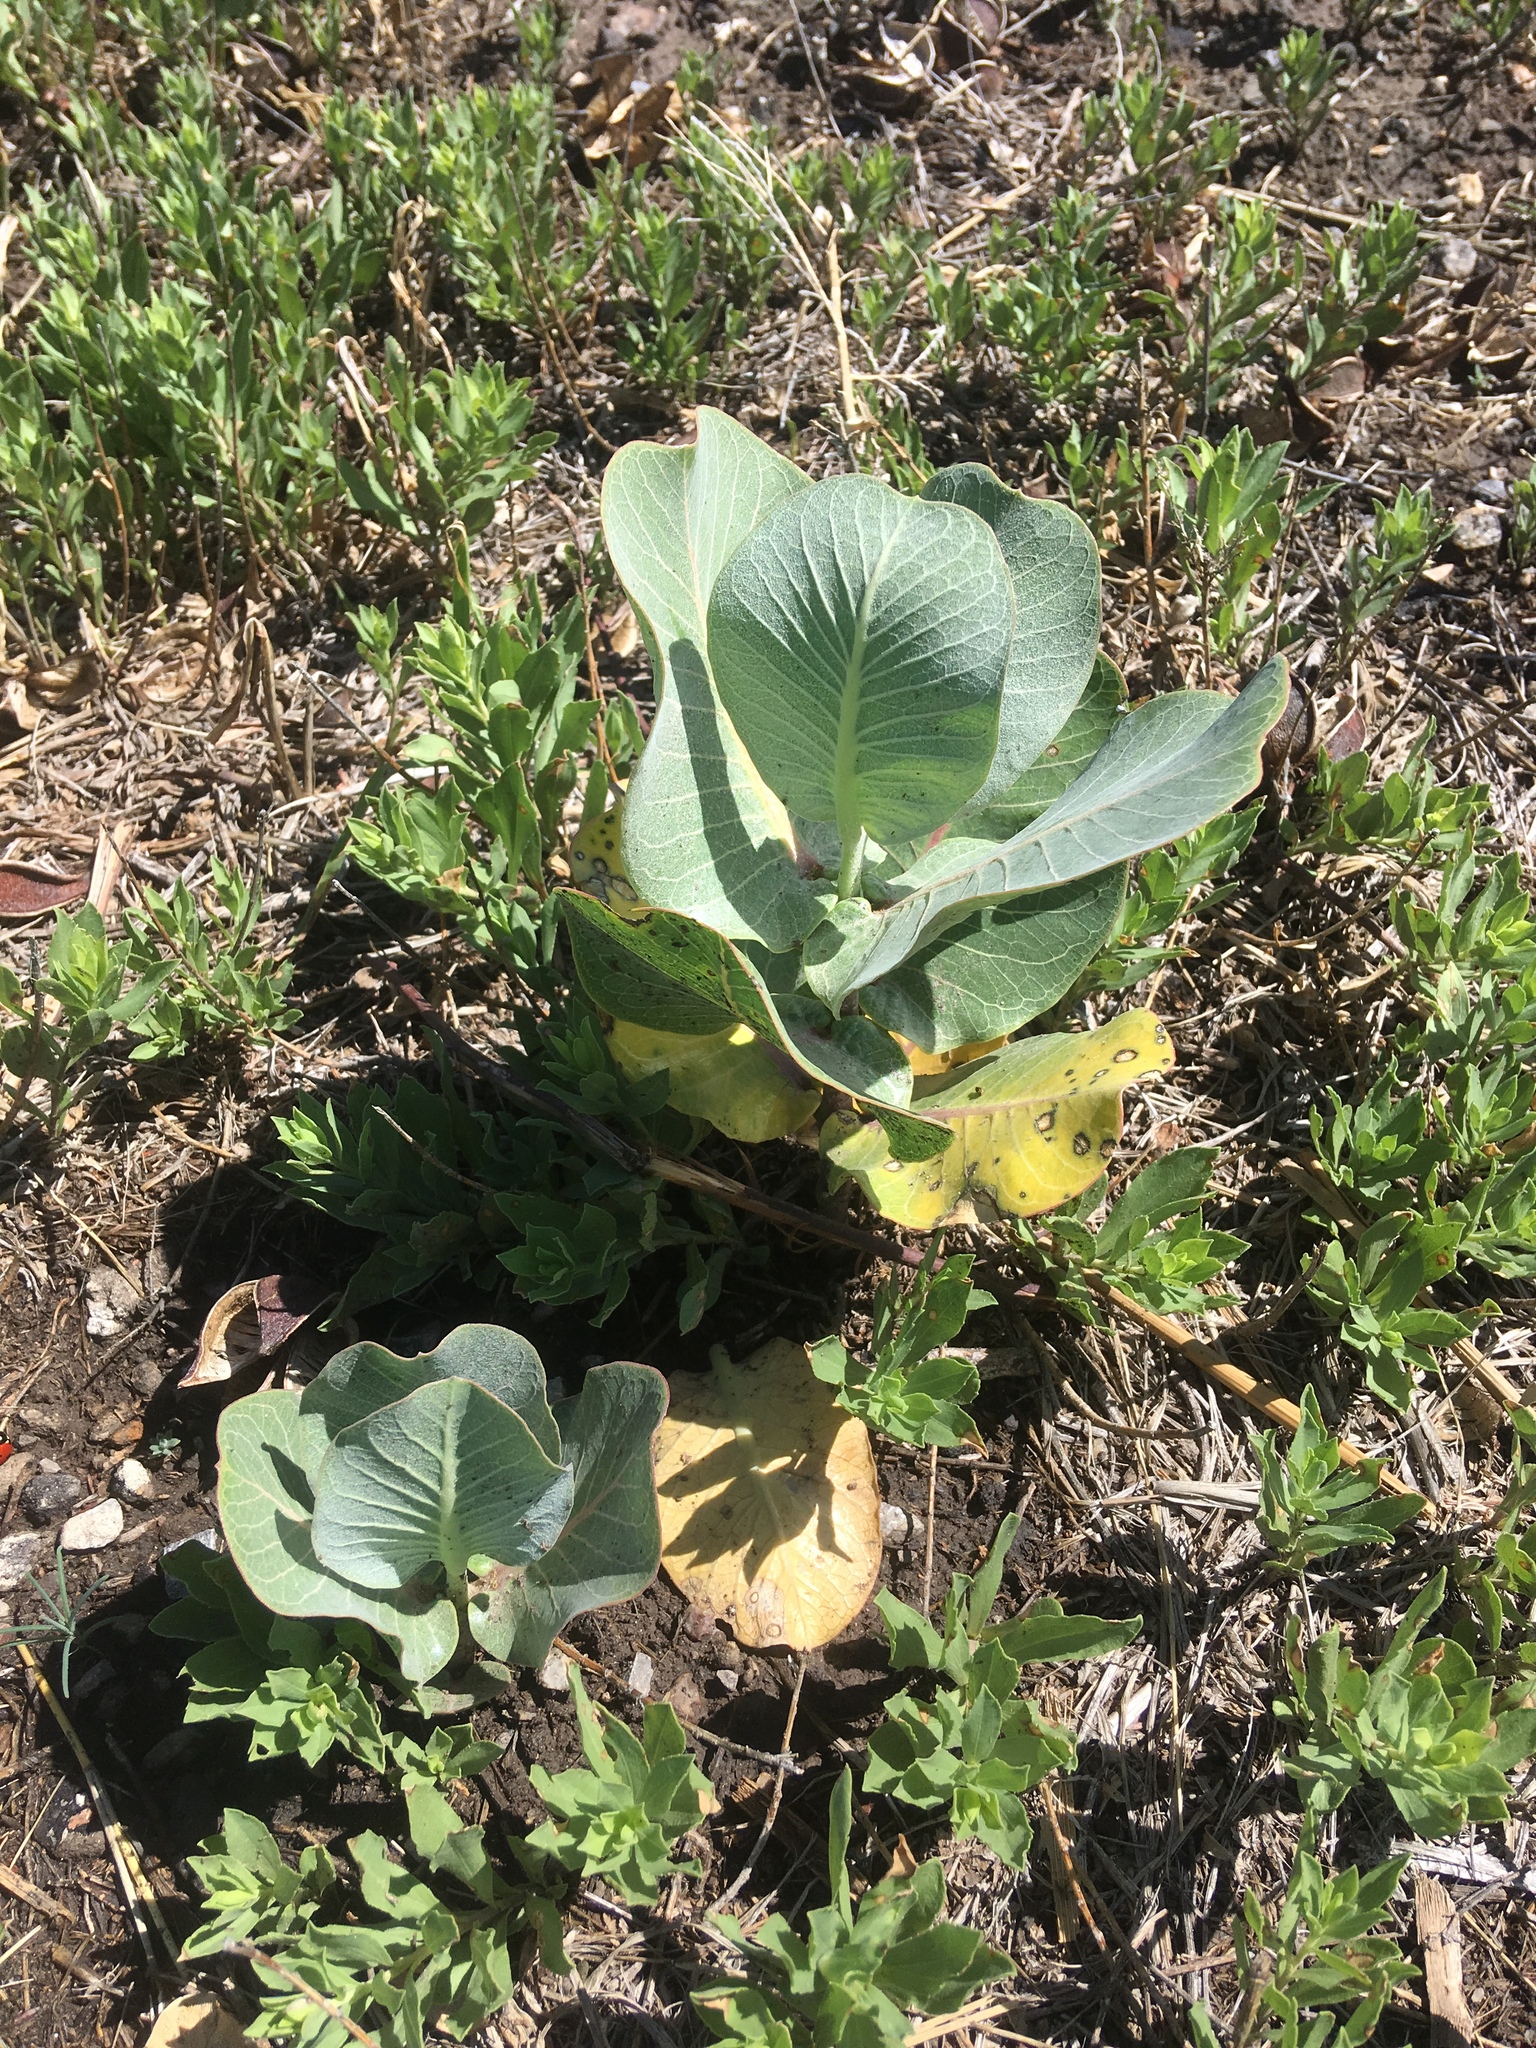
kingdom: Plantae
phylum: Tracheophyta
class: Magnoliopsida
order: Gentianales
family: Apocynaceae
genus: Asclepias
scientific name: Asclepias latifolia
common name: Broadleaf milkweed
